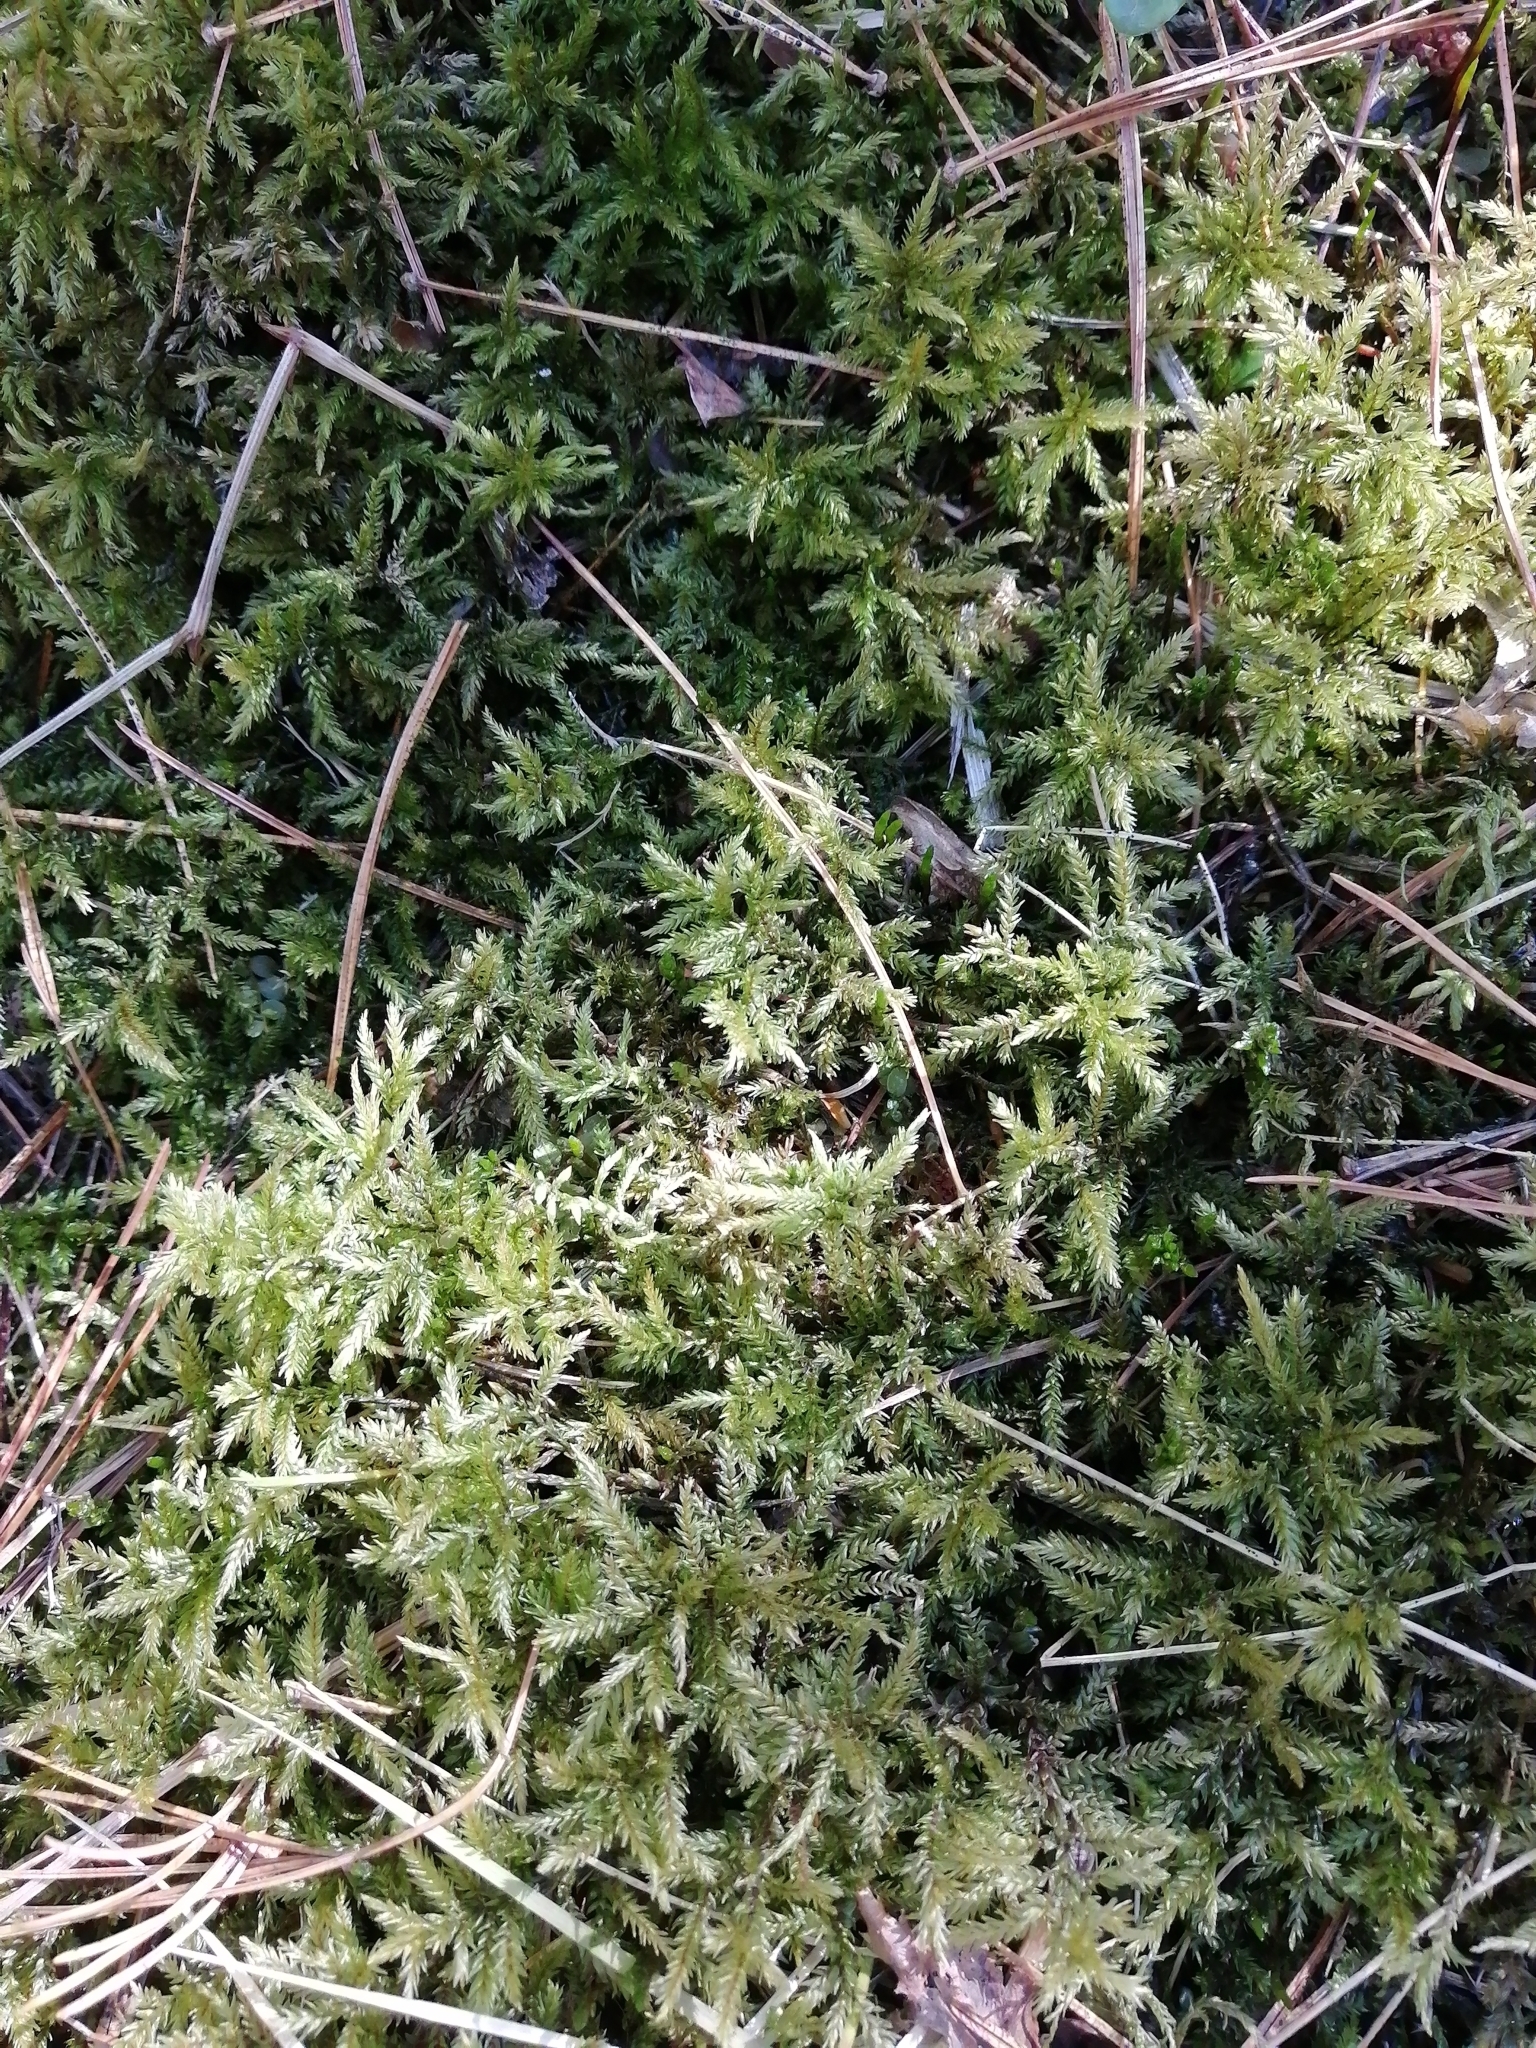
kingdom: Plantae
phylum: Bryophyta
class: Bryopsida
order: Hypnales
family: Climaciaceae
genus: Climacium
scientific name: Climacium dendroides
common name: Northern tree moss
